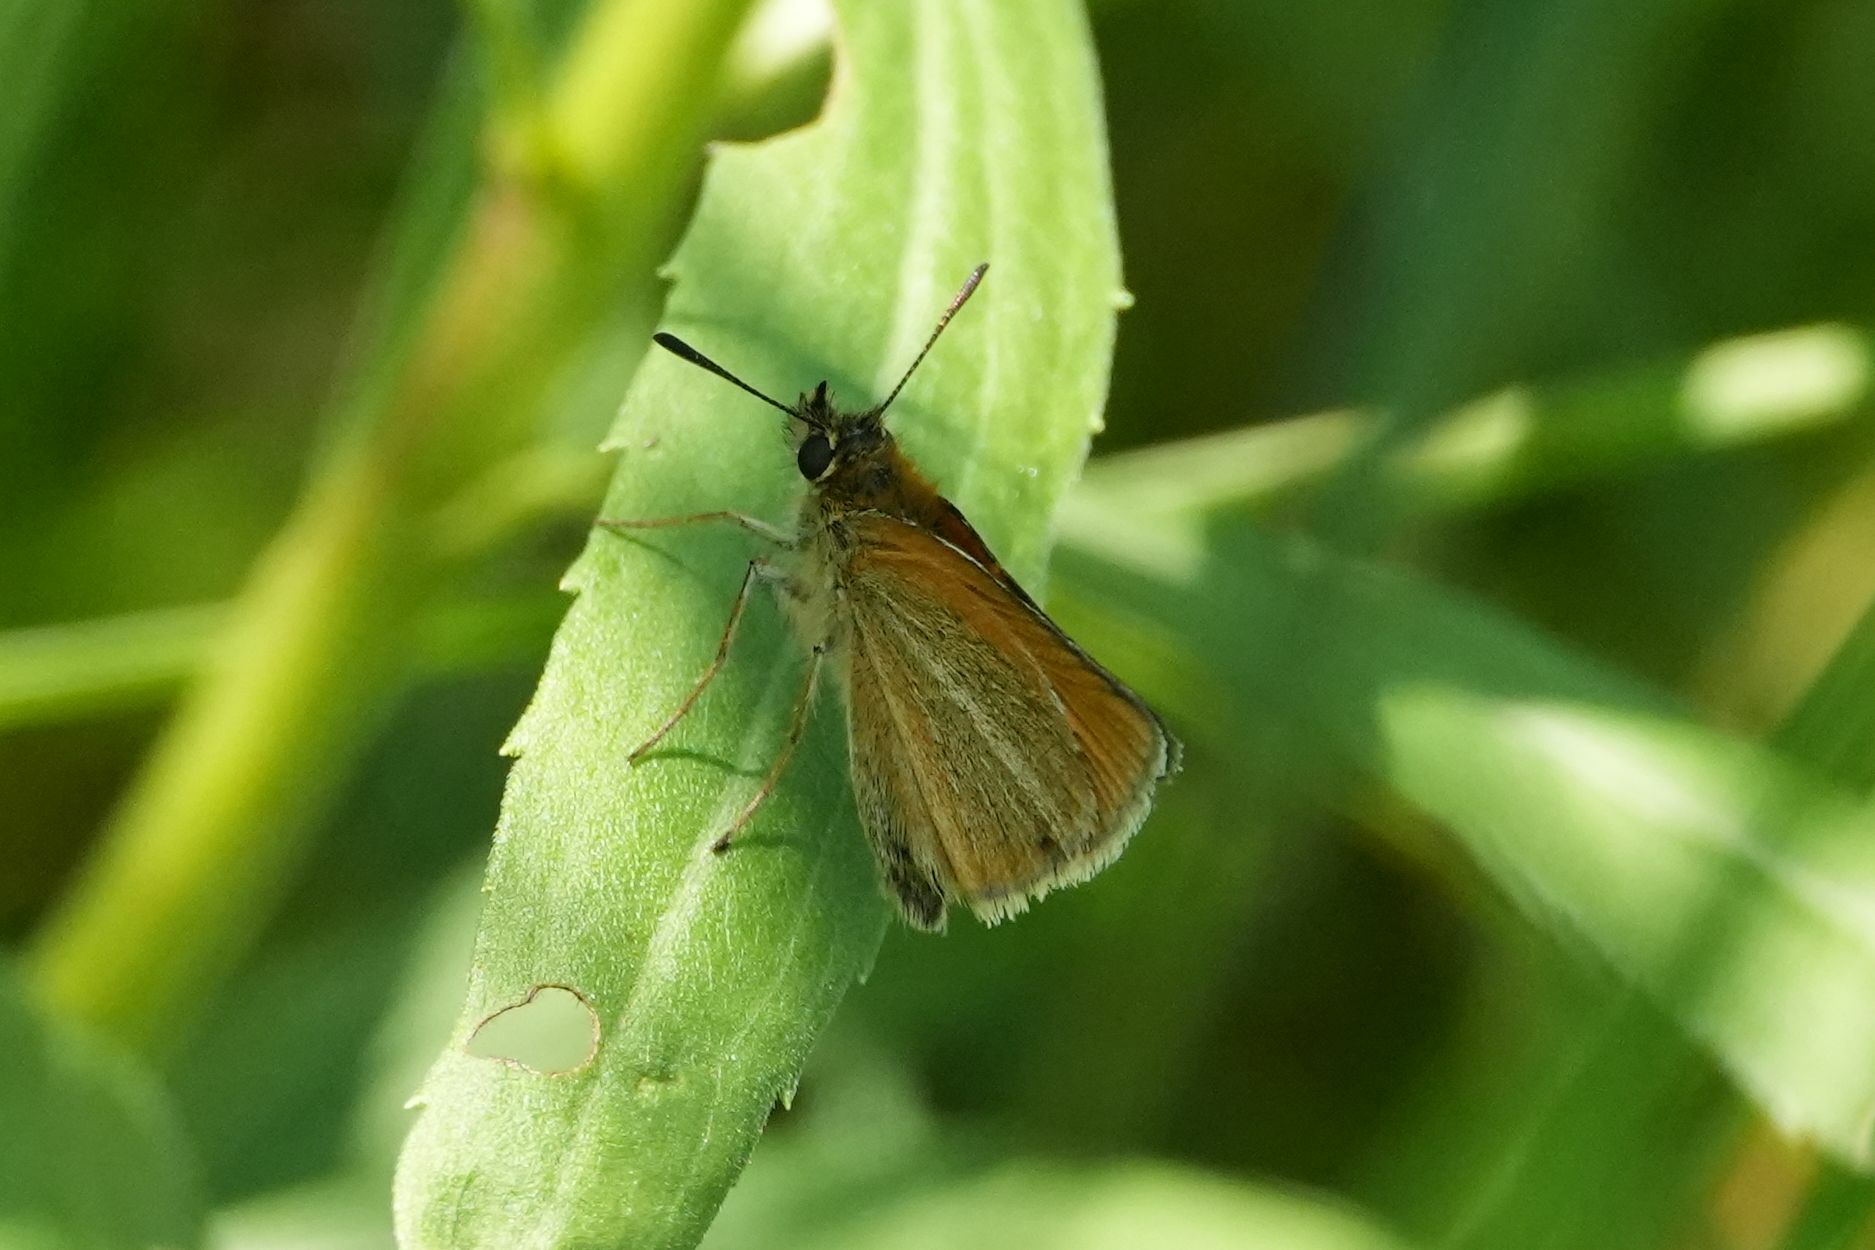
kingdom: Animalia
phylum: Arthropoda
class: Insecta
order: Lepidoptera
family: Hesperiidae
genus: Thymelicus
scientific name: Thymelicus lineola
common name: Essex skipper
